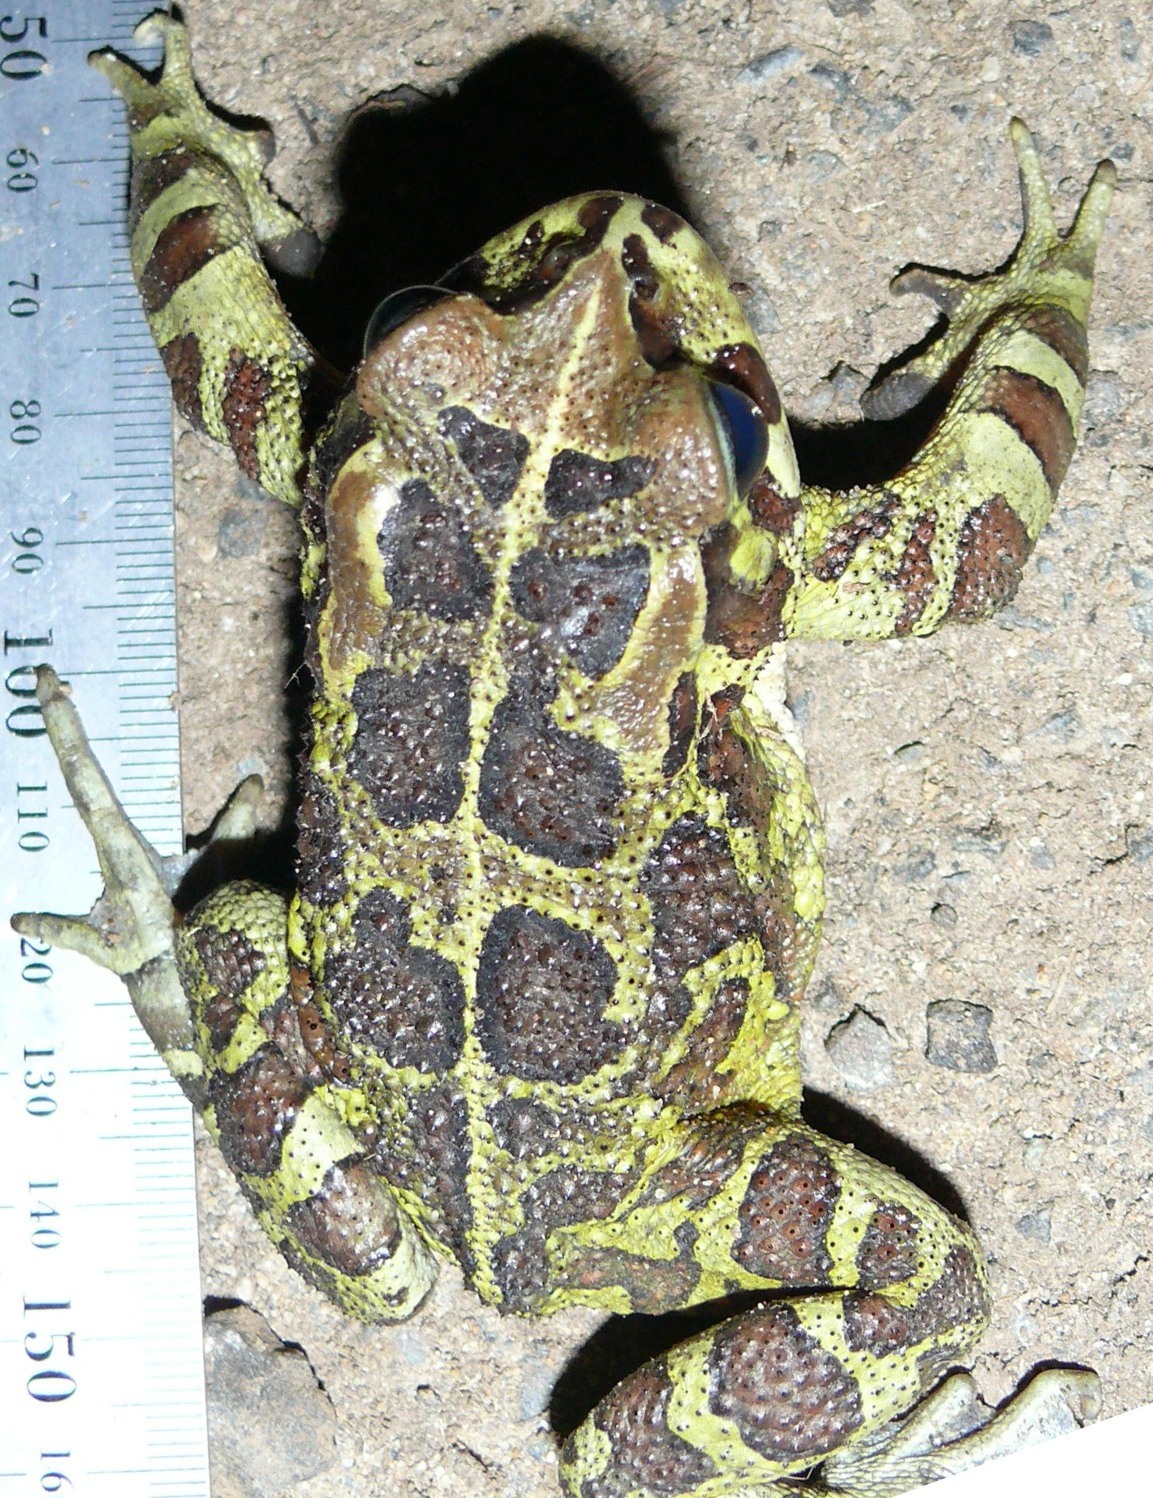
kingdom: Animalia
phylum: Chordata
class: Amphibia
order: Anura
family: Bufonidae
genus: Sclerophrys
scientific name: Sclerophrys pantherina
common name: Panther toad
